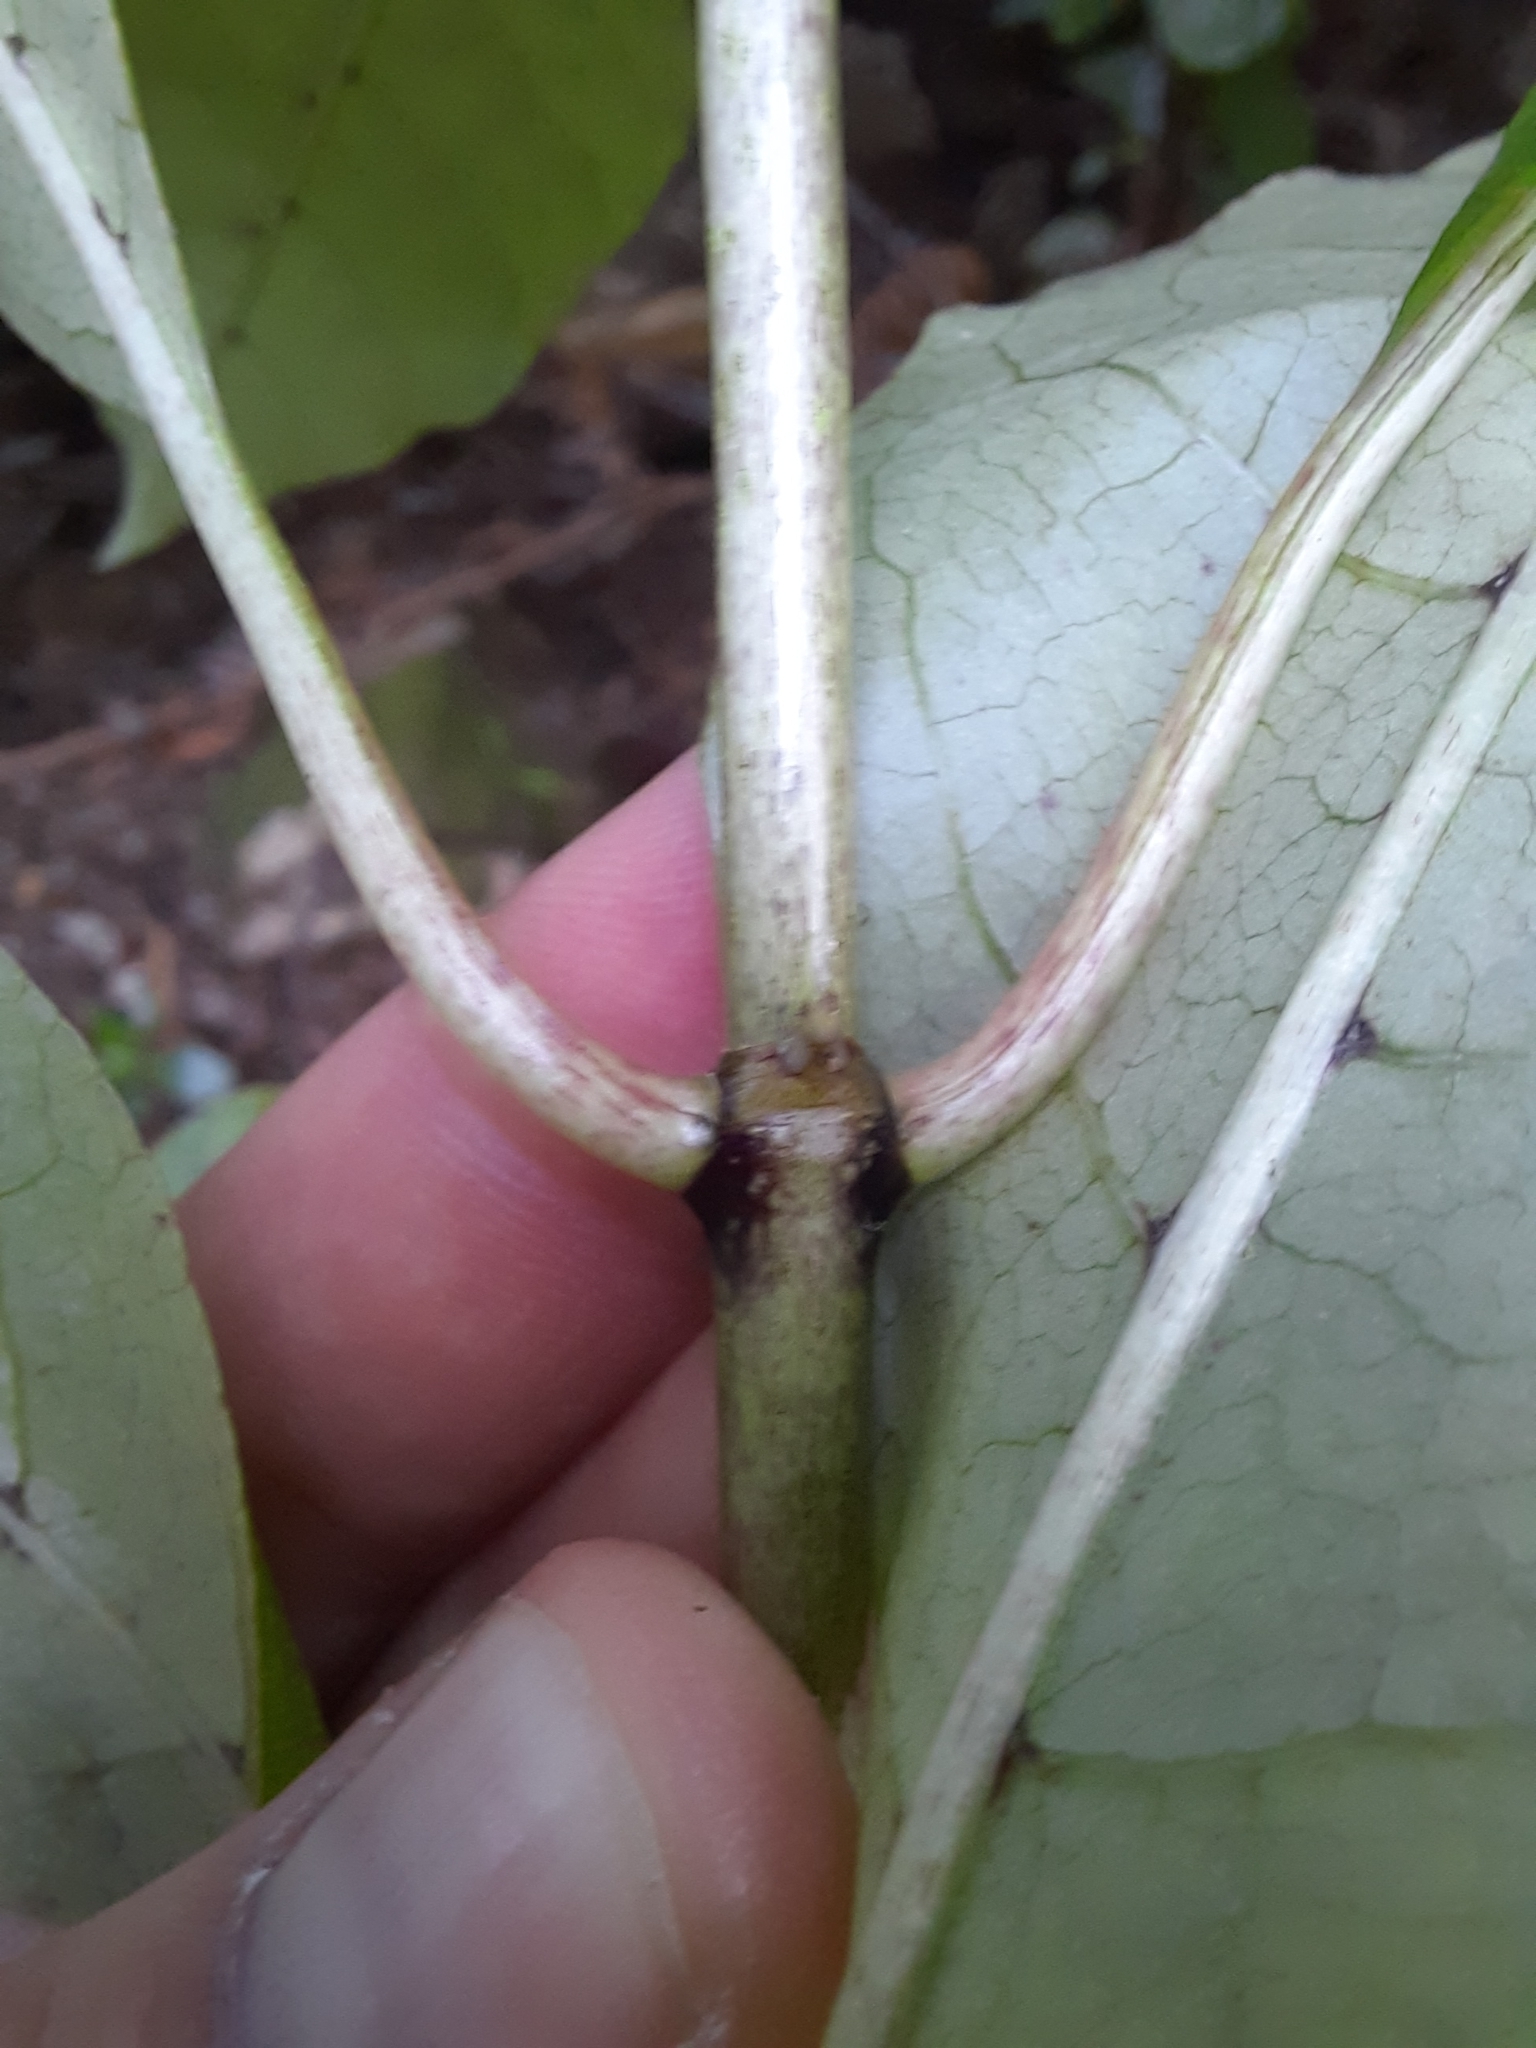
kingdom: Plantae
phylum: Tracheophyta
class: Magnoliopsida
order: Gentianales
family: Rubiaceae
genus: Coprosma
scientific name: Coprosma autumnalis
